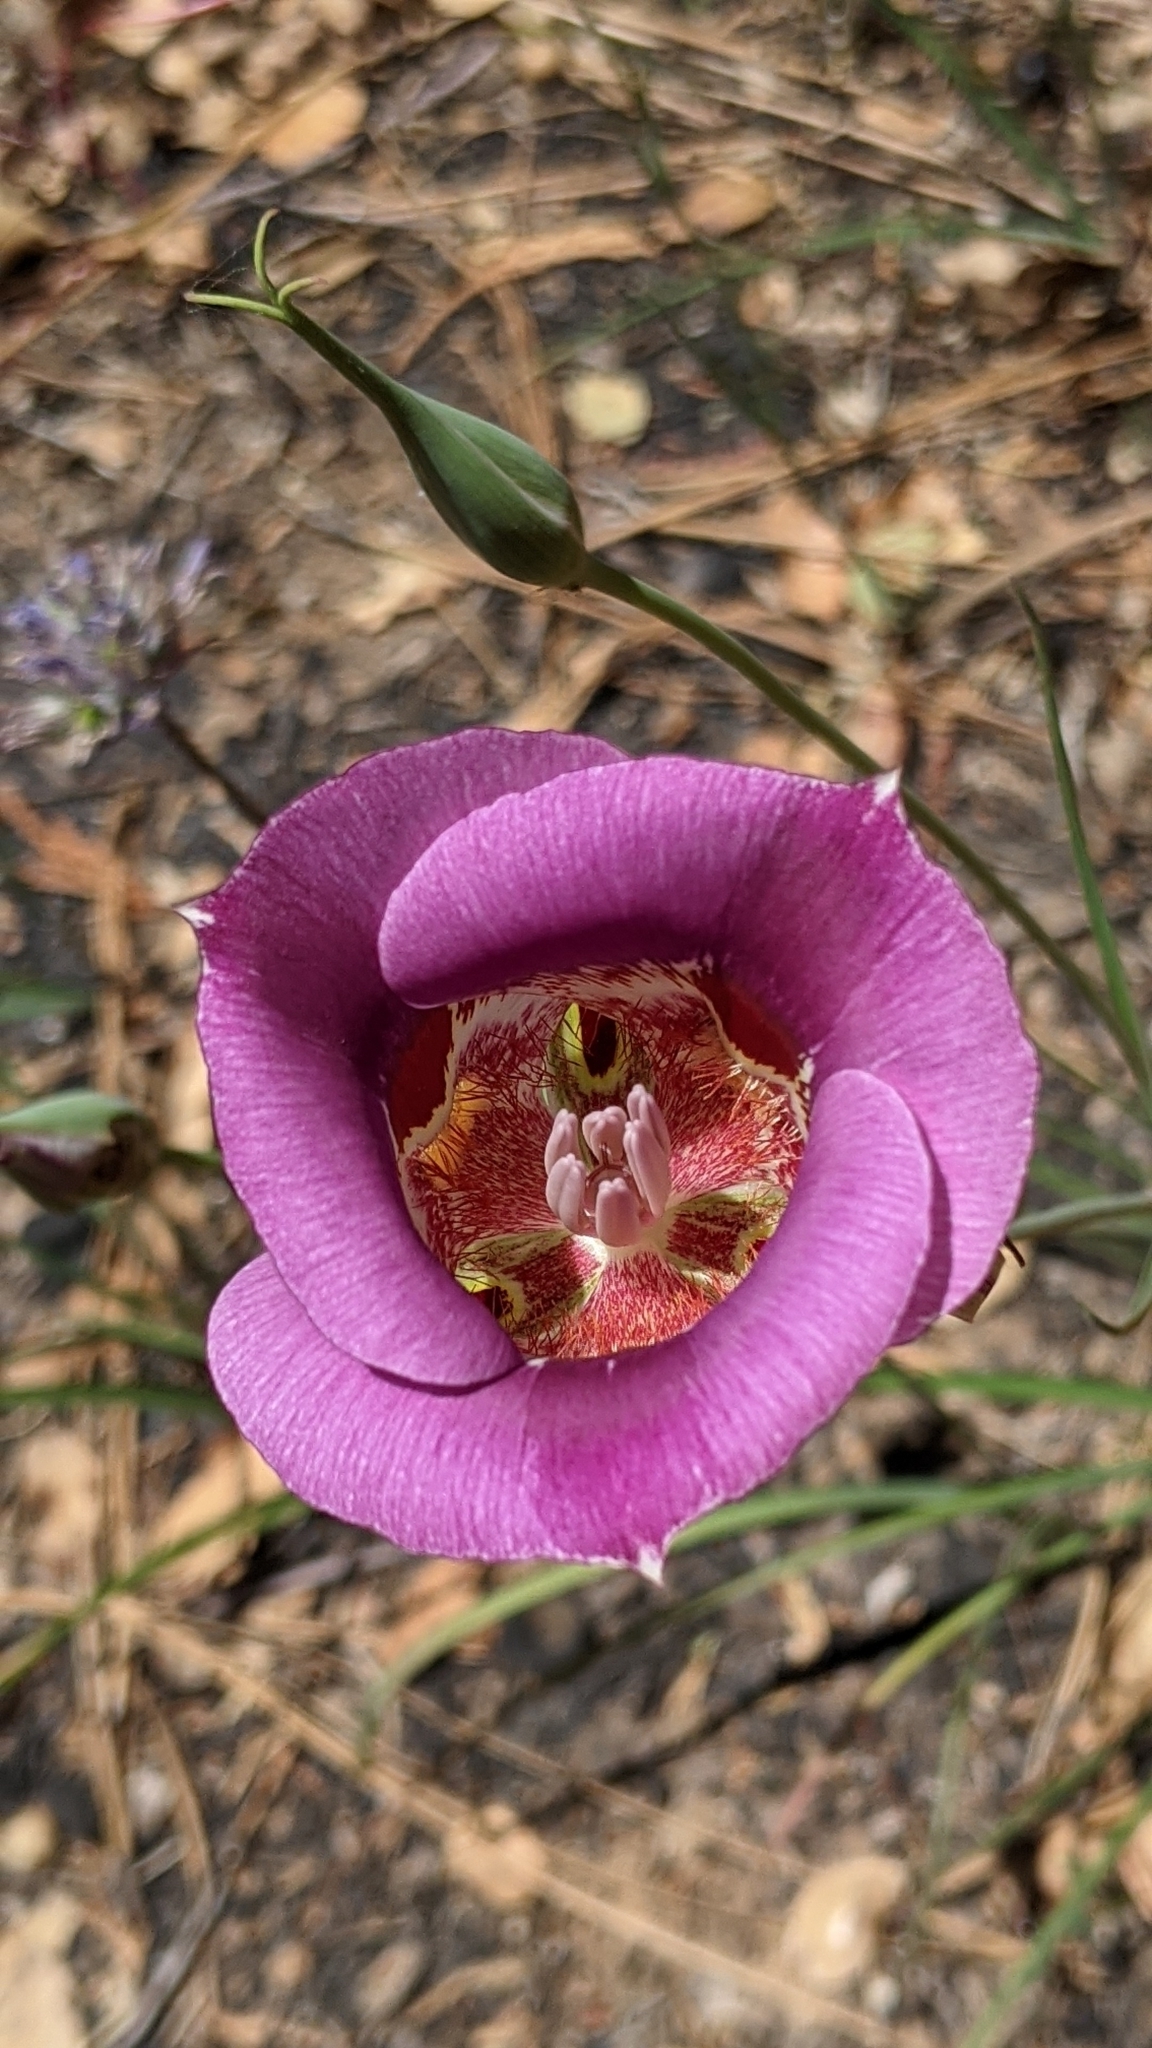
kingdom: Plantae
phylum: Tracheophyta
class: Liliopsida
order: Liliales
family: Liliaceae
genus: Calochortus
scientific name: Calochortus venustus
